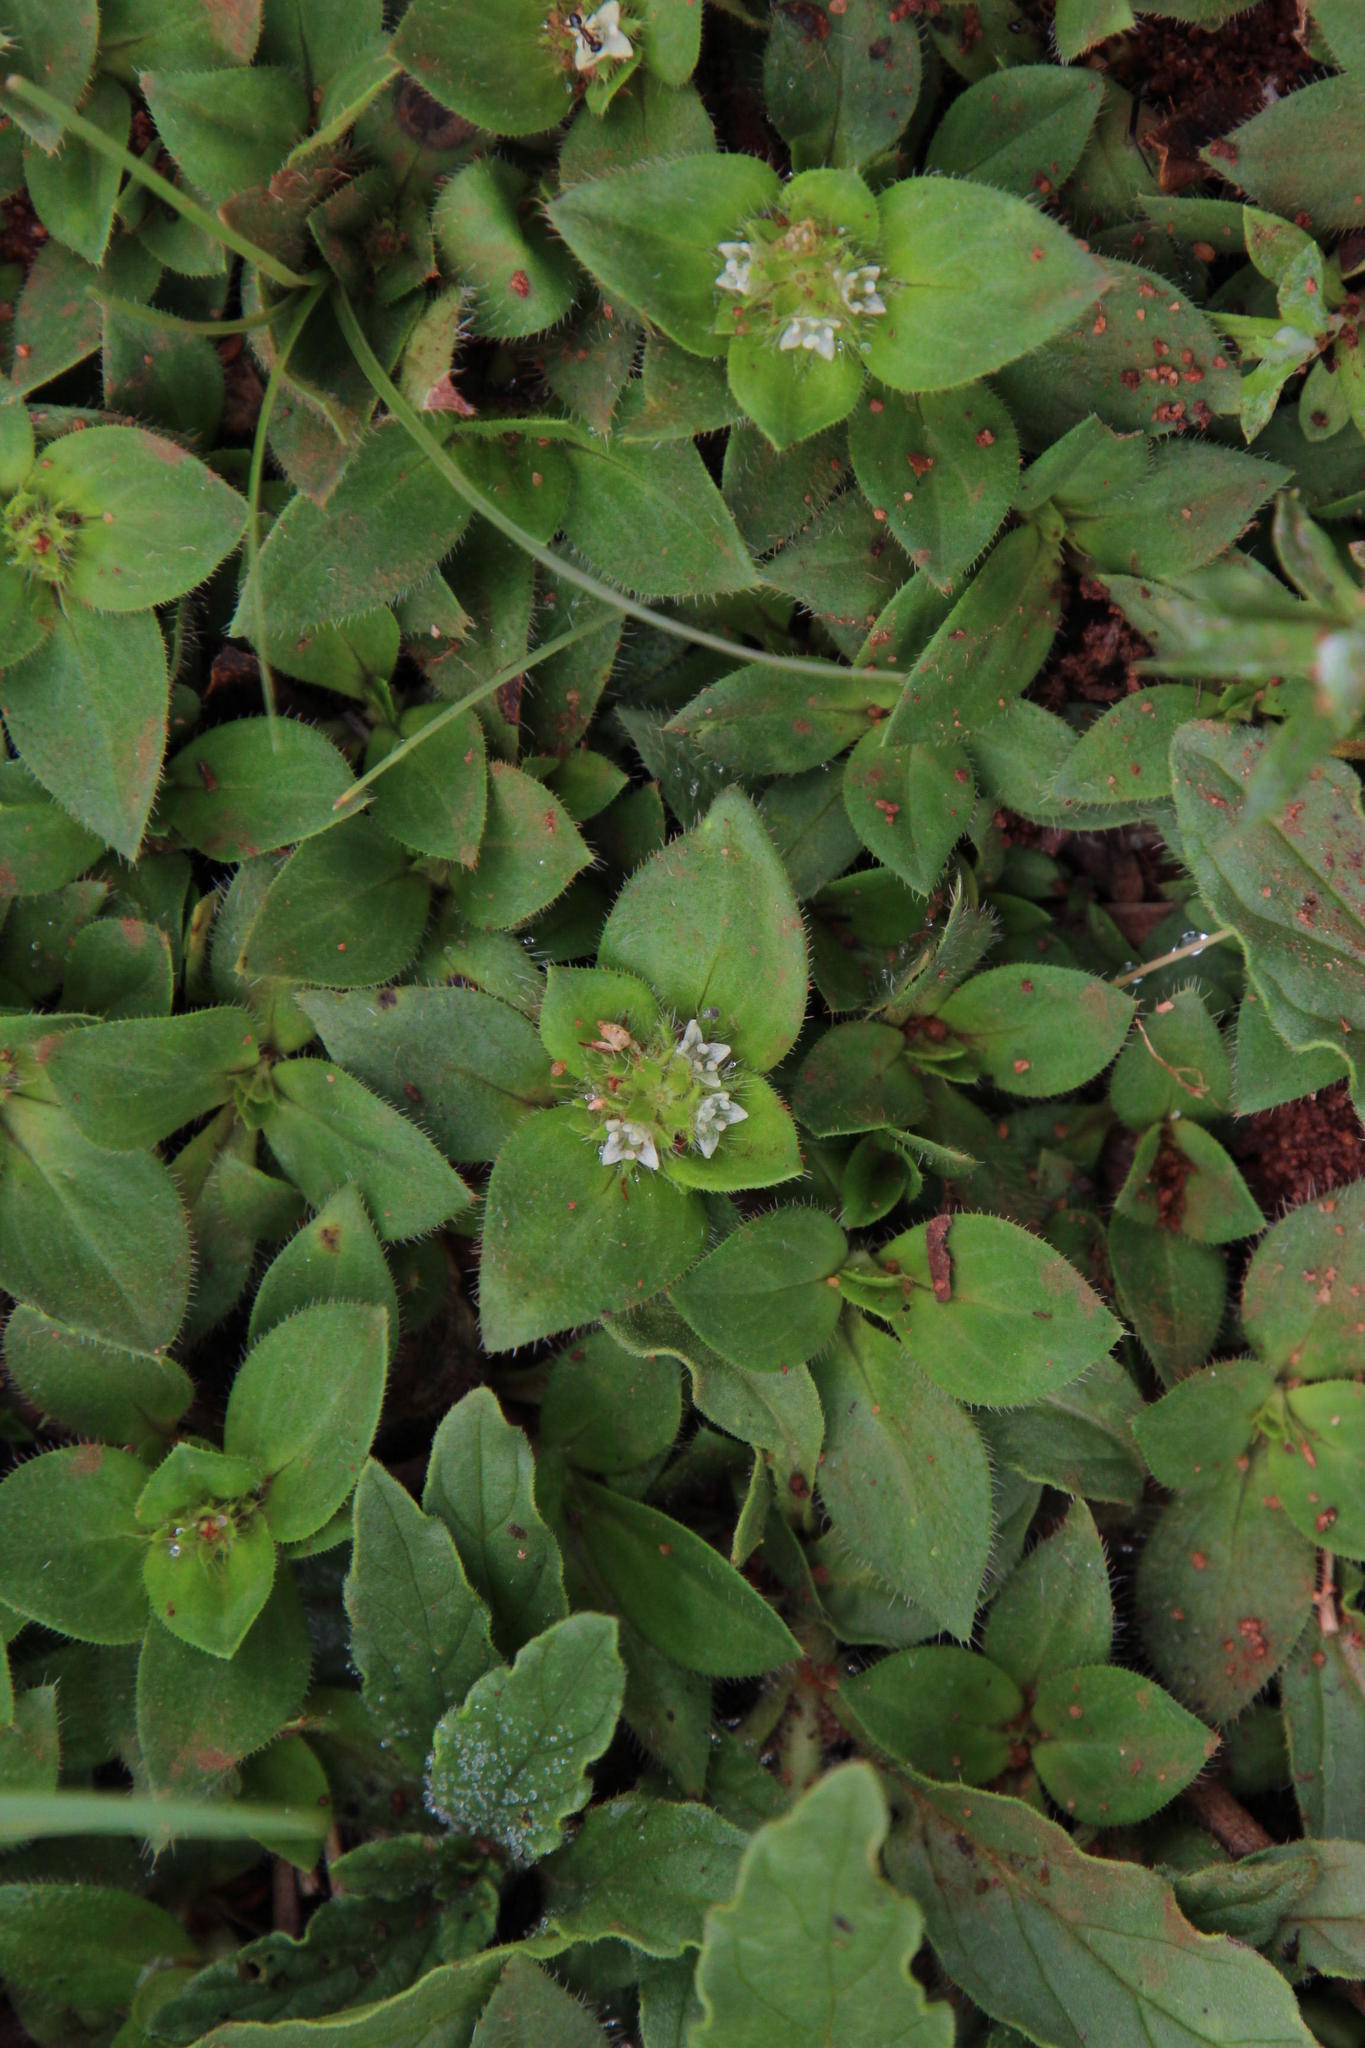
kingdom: Plantae
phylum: Tracheophyta
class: Magnoliopsida
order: Gentianales
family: Rubiaceae
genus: Richardia
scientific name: Richardia brasiliensis
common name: Tropical mexican clover
